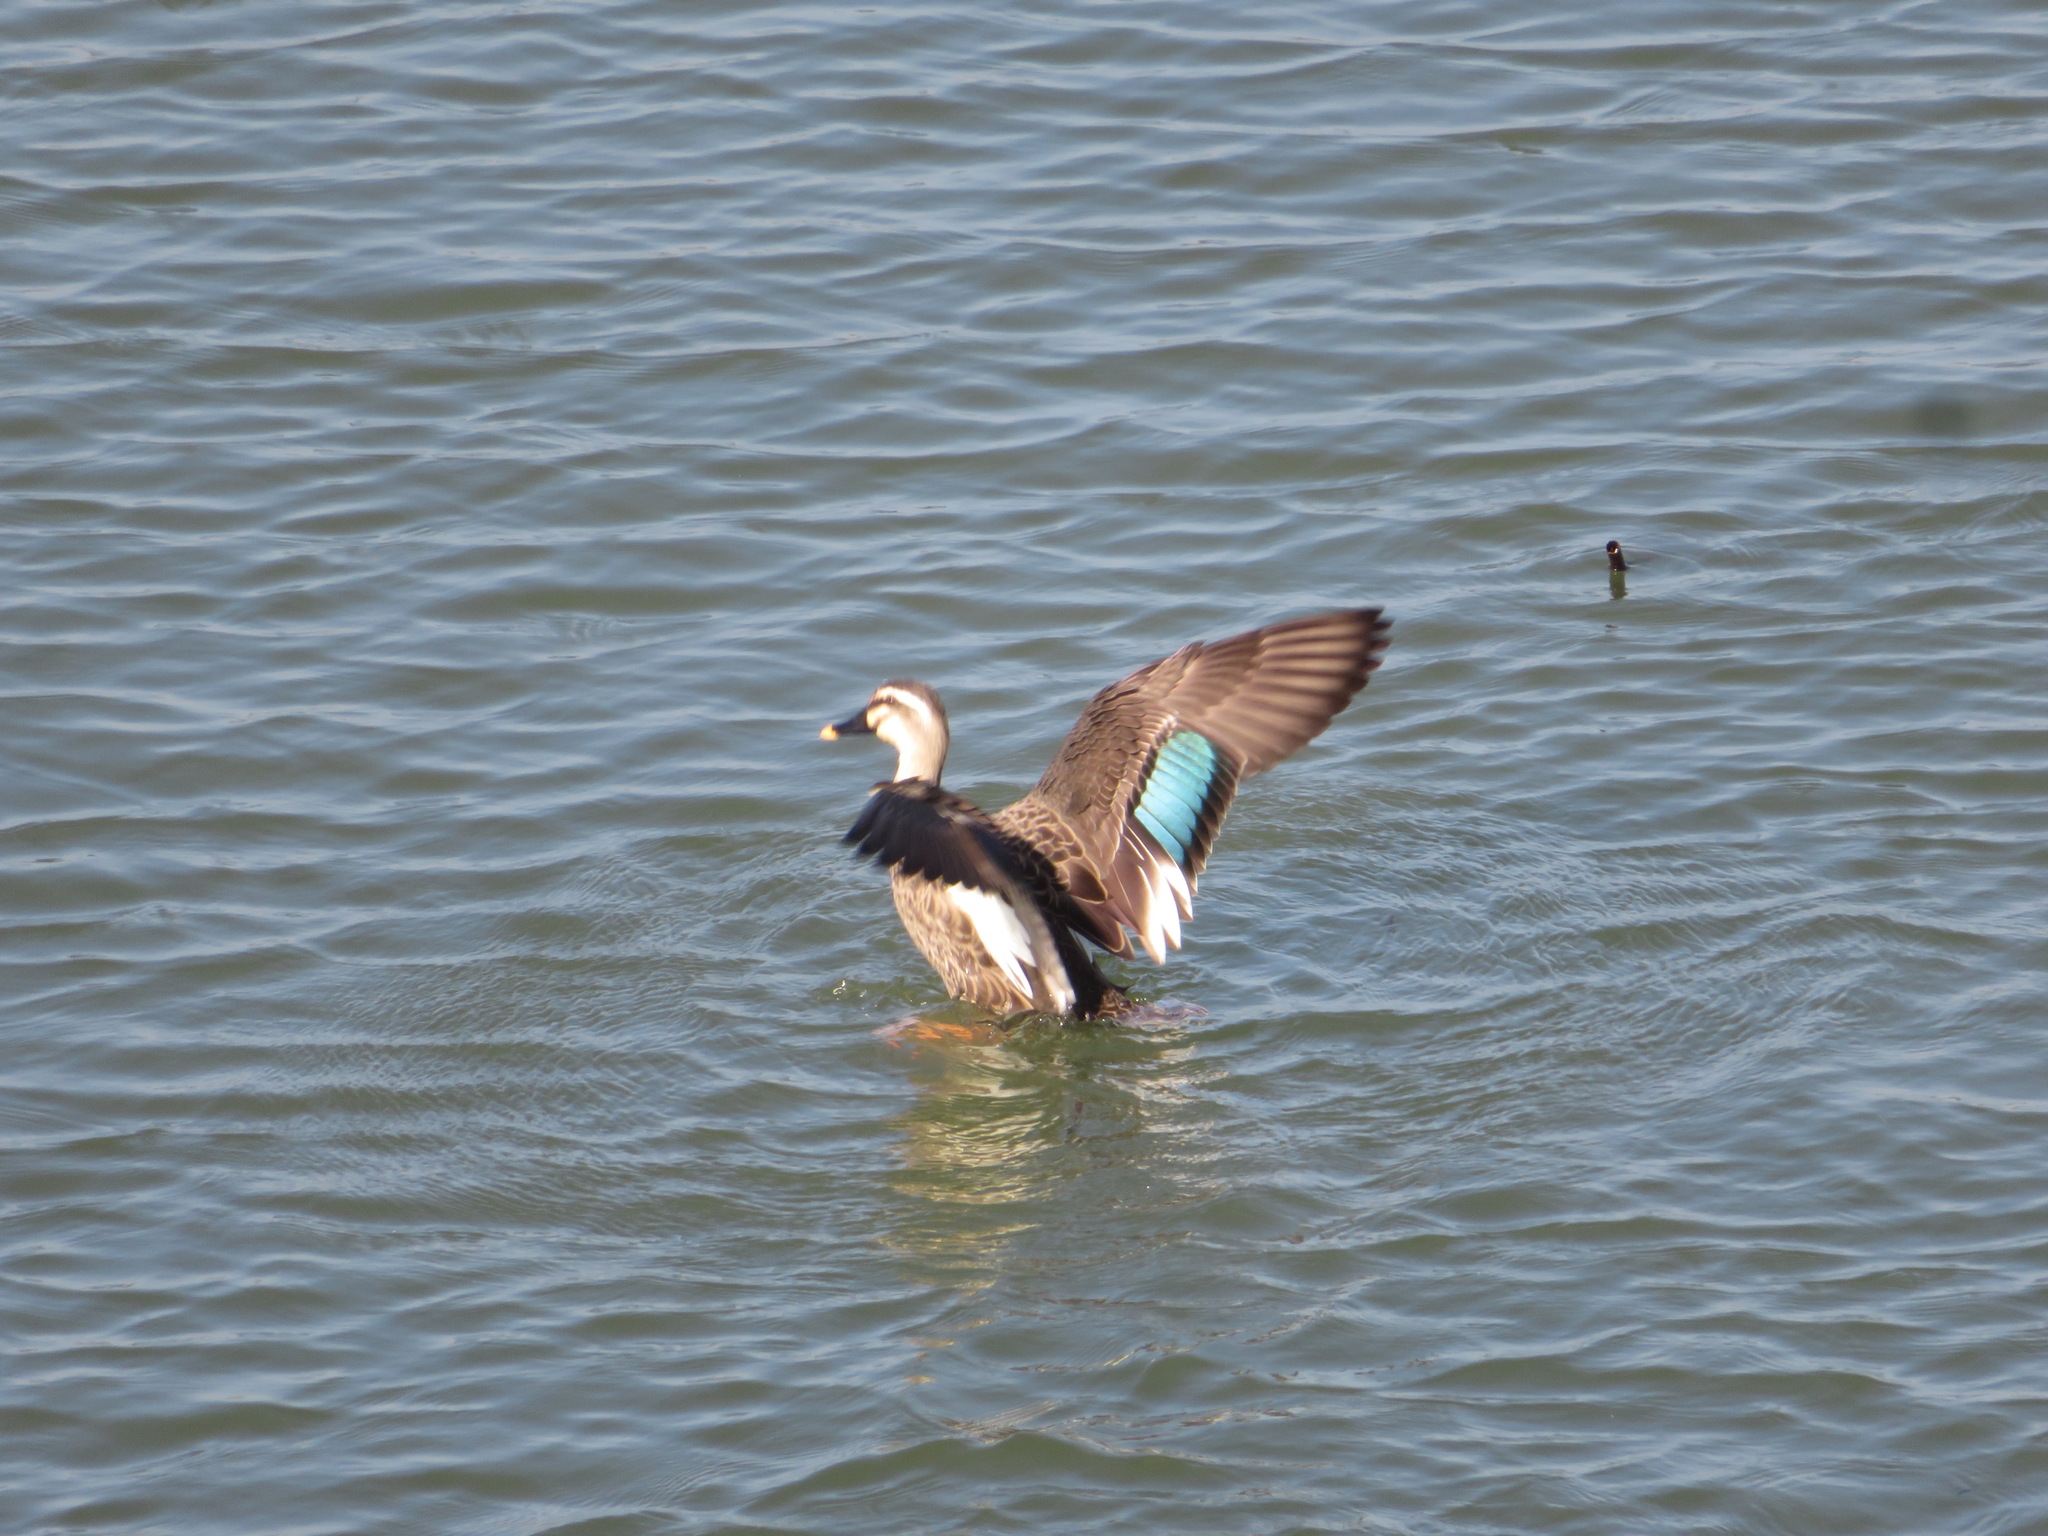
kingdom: Animalia
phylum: Chordata
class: Aves
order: Anseriformes
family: Anatidae
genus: Anas
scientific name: Anas zonorhyncha
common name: Eastern spot-billed duck
